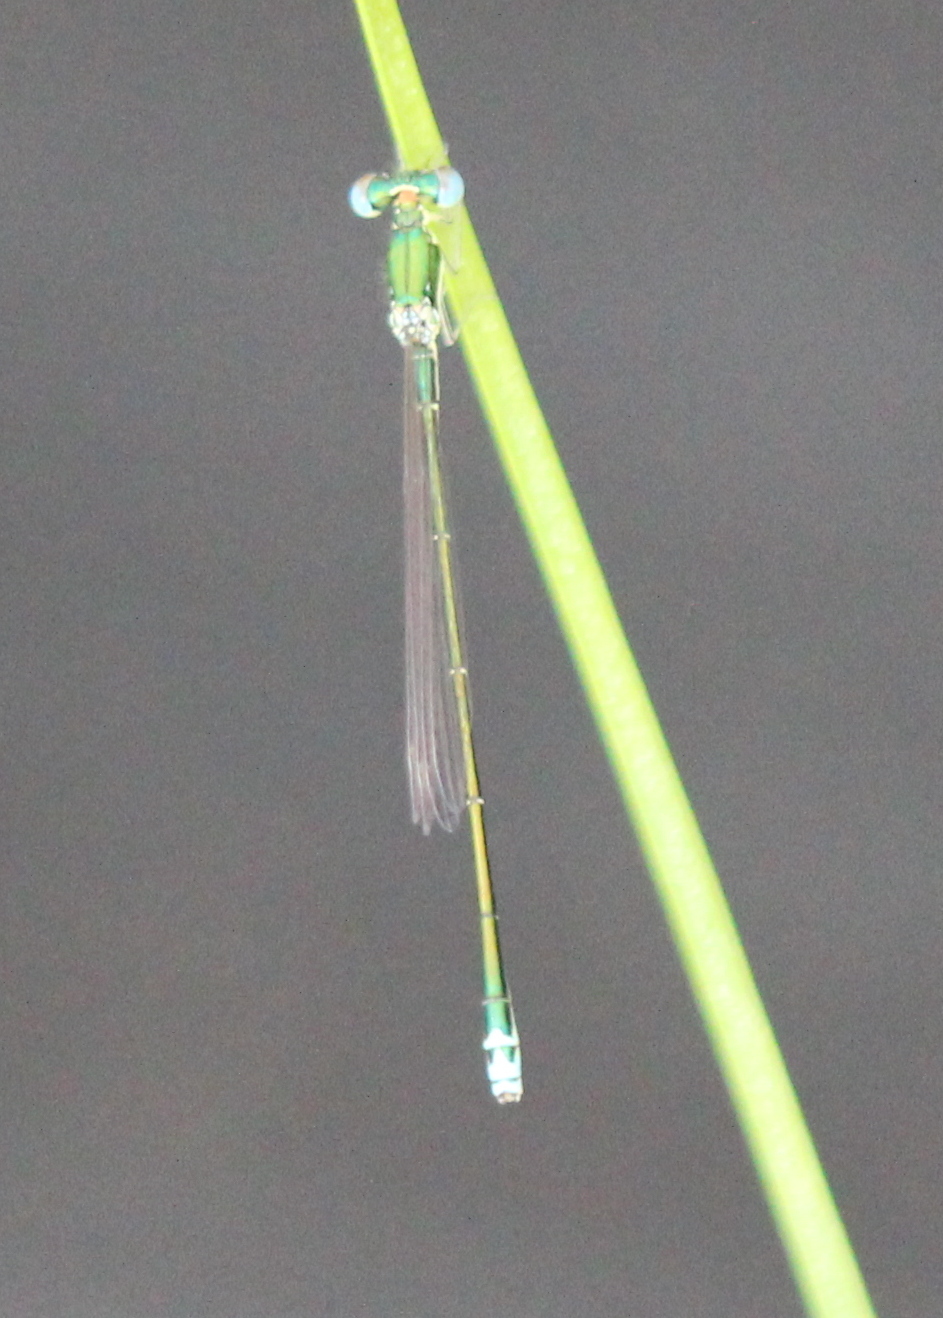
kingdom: Animalia
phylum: Arthropoda
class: Insecta
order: Odonata
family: Coenagrionidae
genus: Nehalennia
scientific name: Nehalennia irene
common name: Sedge sprite
